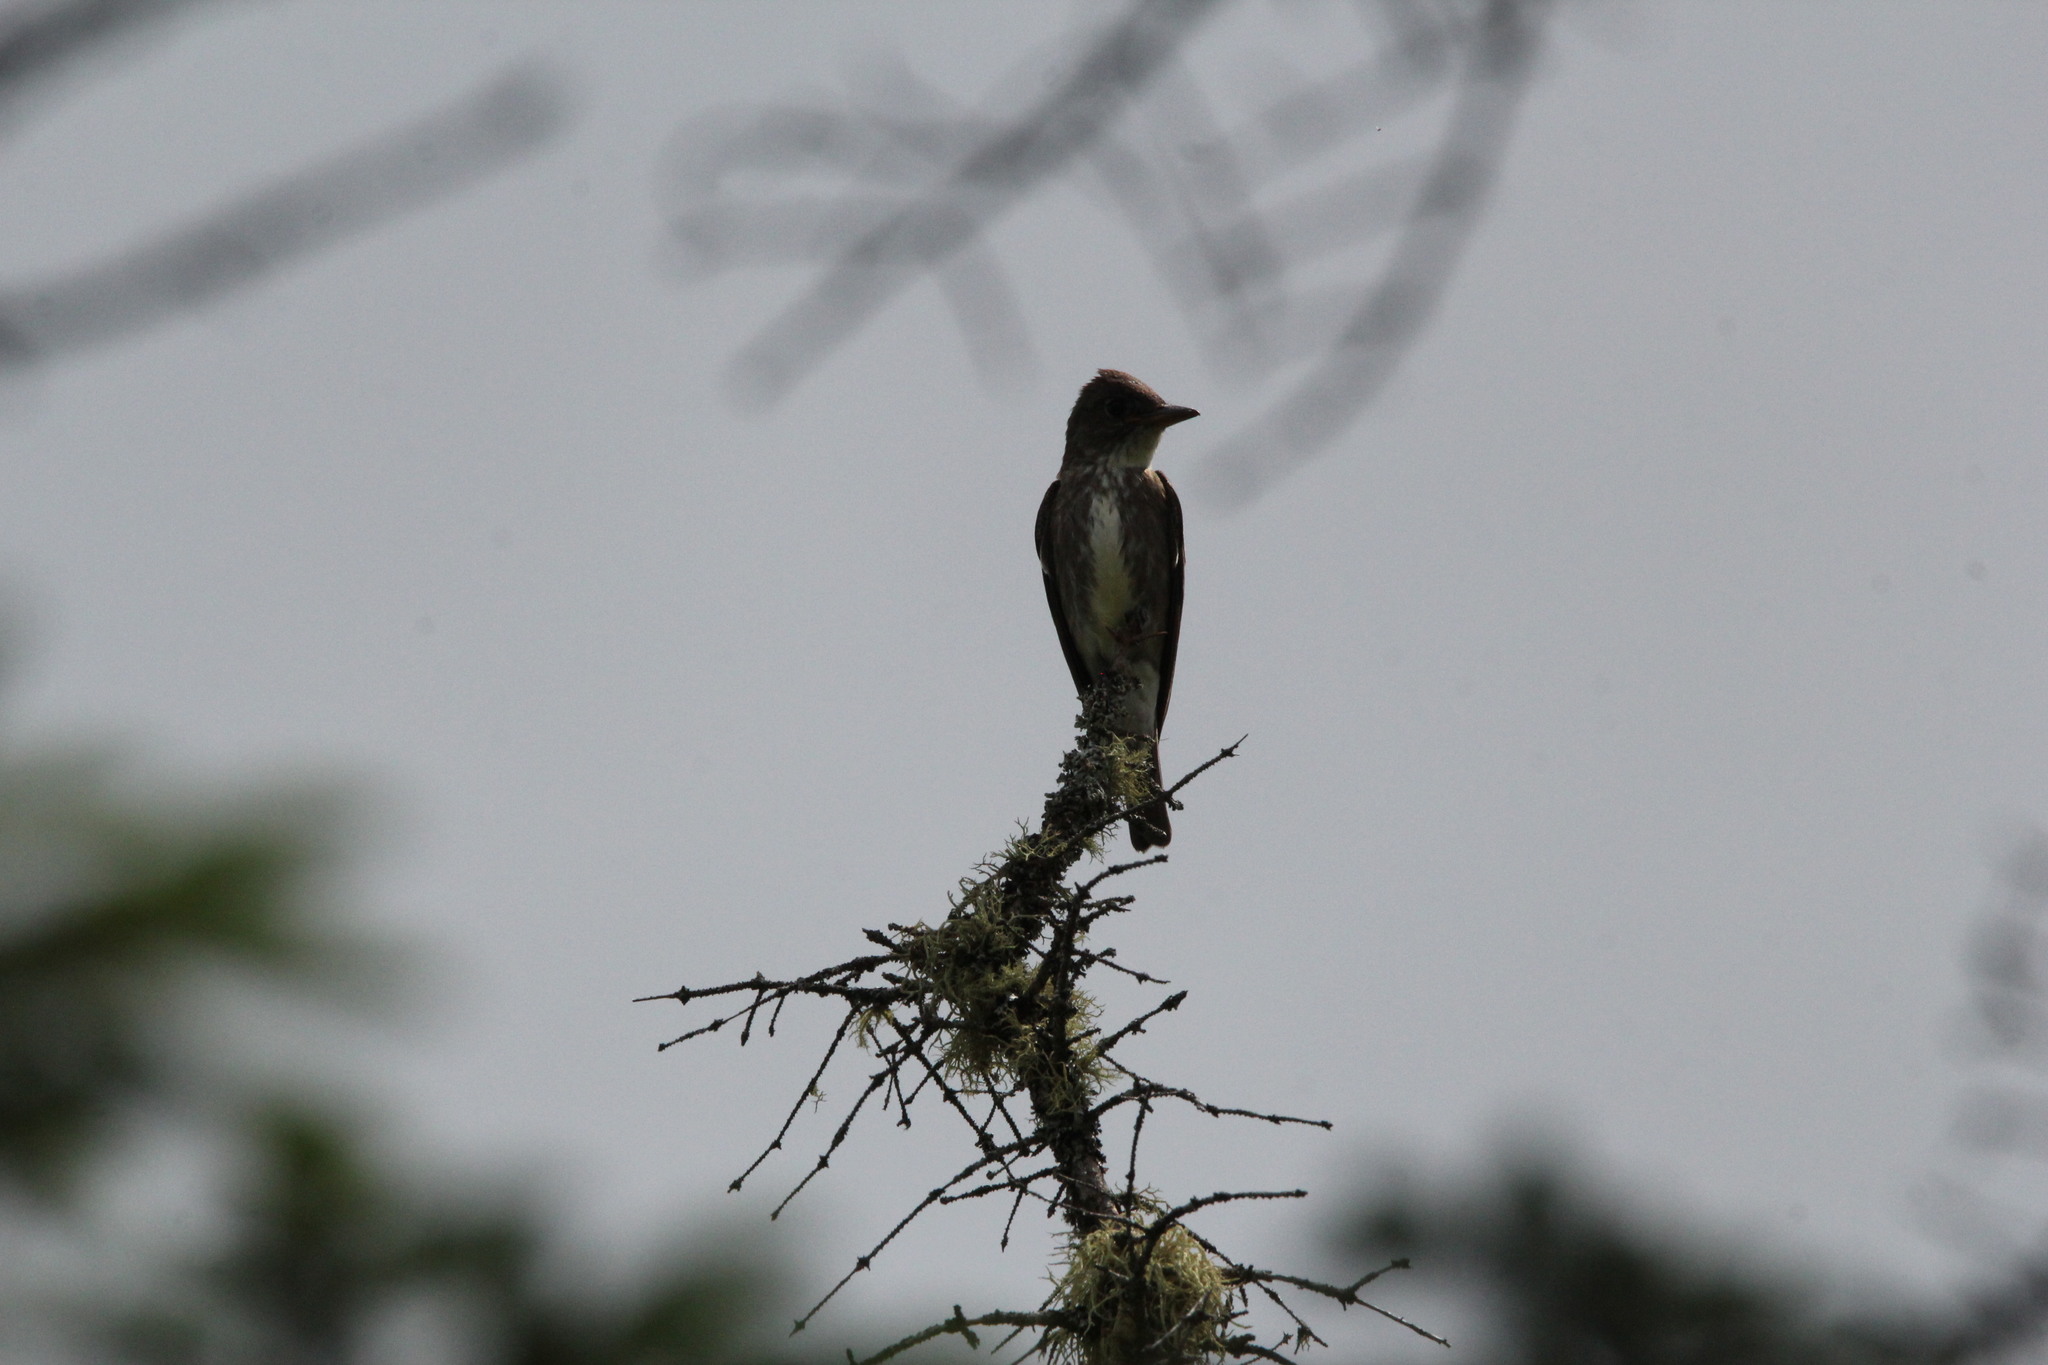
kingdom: Animalia
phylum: Chordata
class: Aves
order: Passeriformes
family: Tyrannidae
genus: Contopus
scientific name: Contopus cooperi
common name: Olive-sided flycatcher
